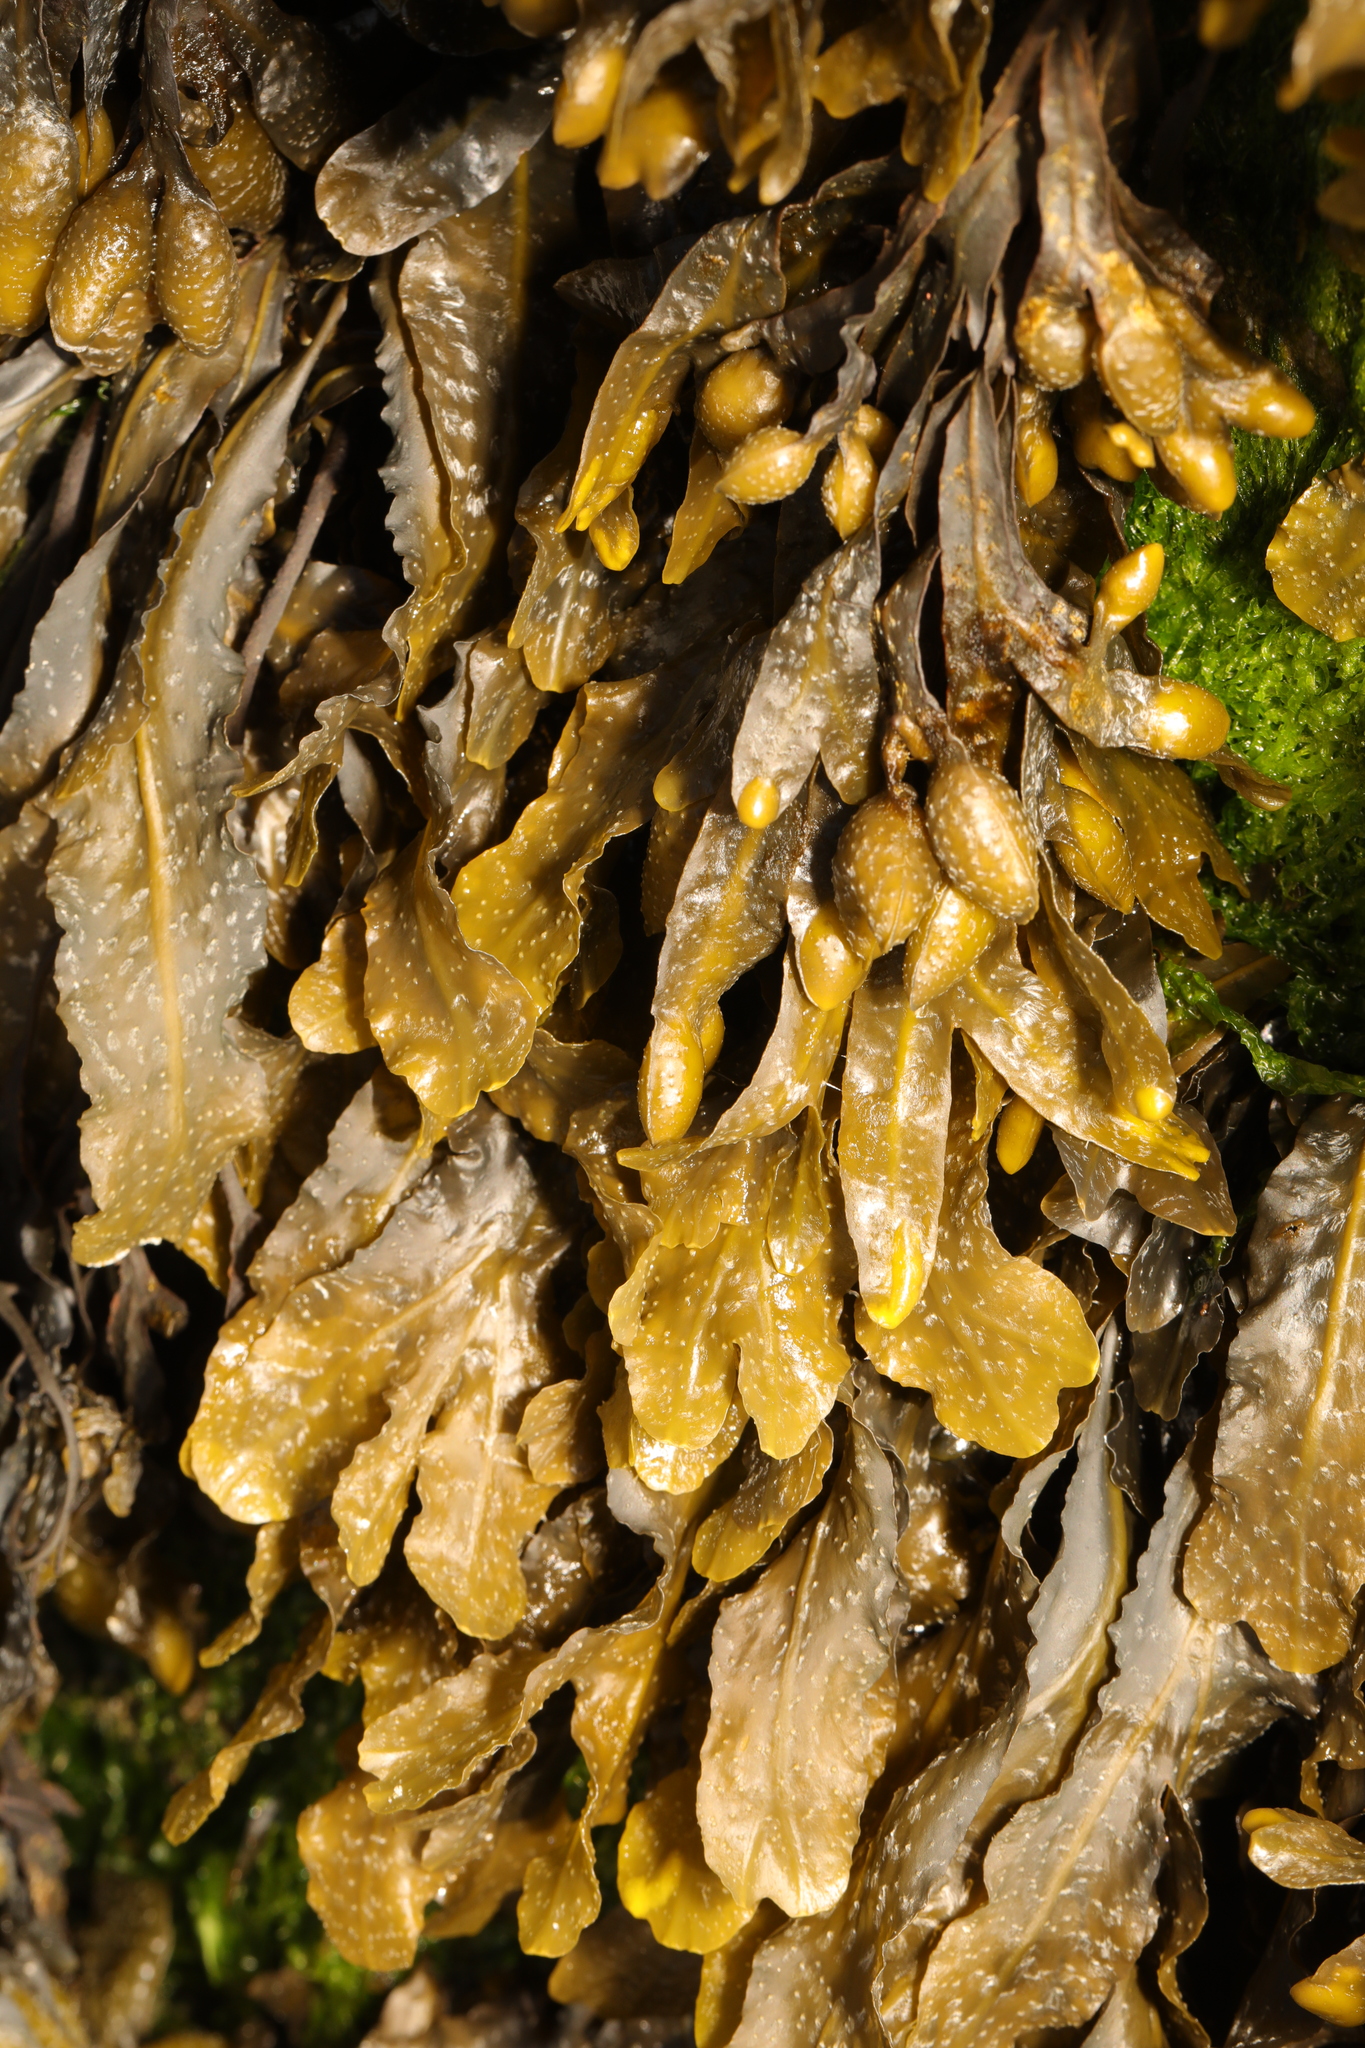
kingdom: Chromista
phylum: Ochrophyta
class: Phaeophyceae
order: Fucales
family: Fucaceae
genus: Fucus
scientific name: Fucus spiralis
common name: Spiral wrack
